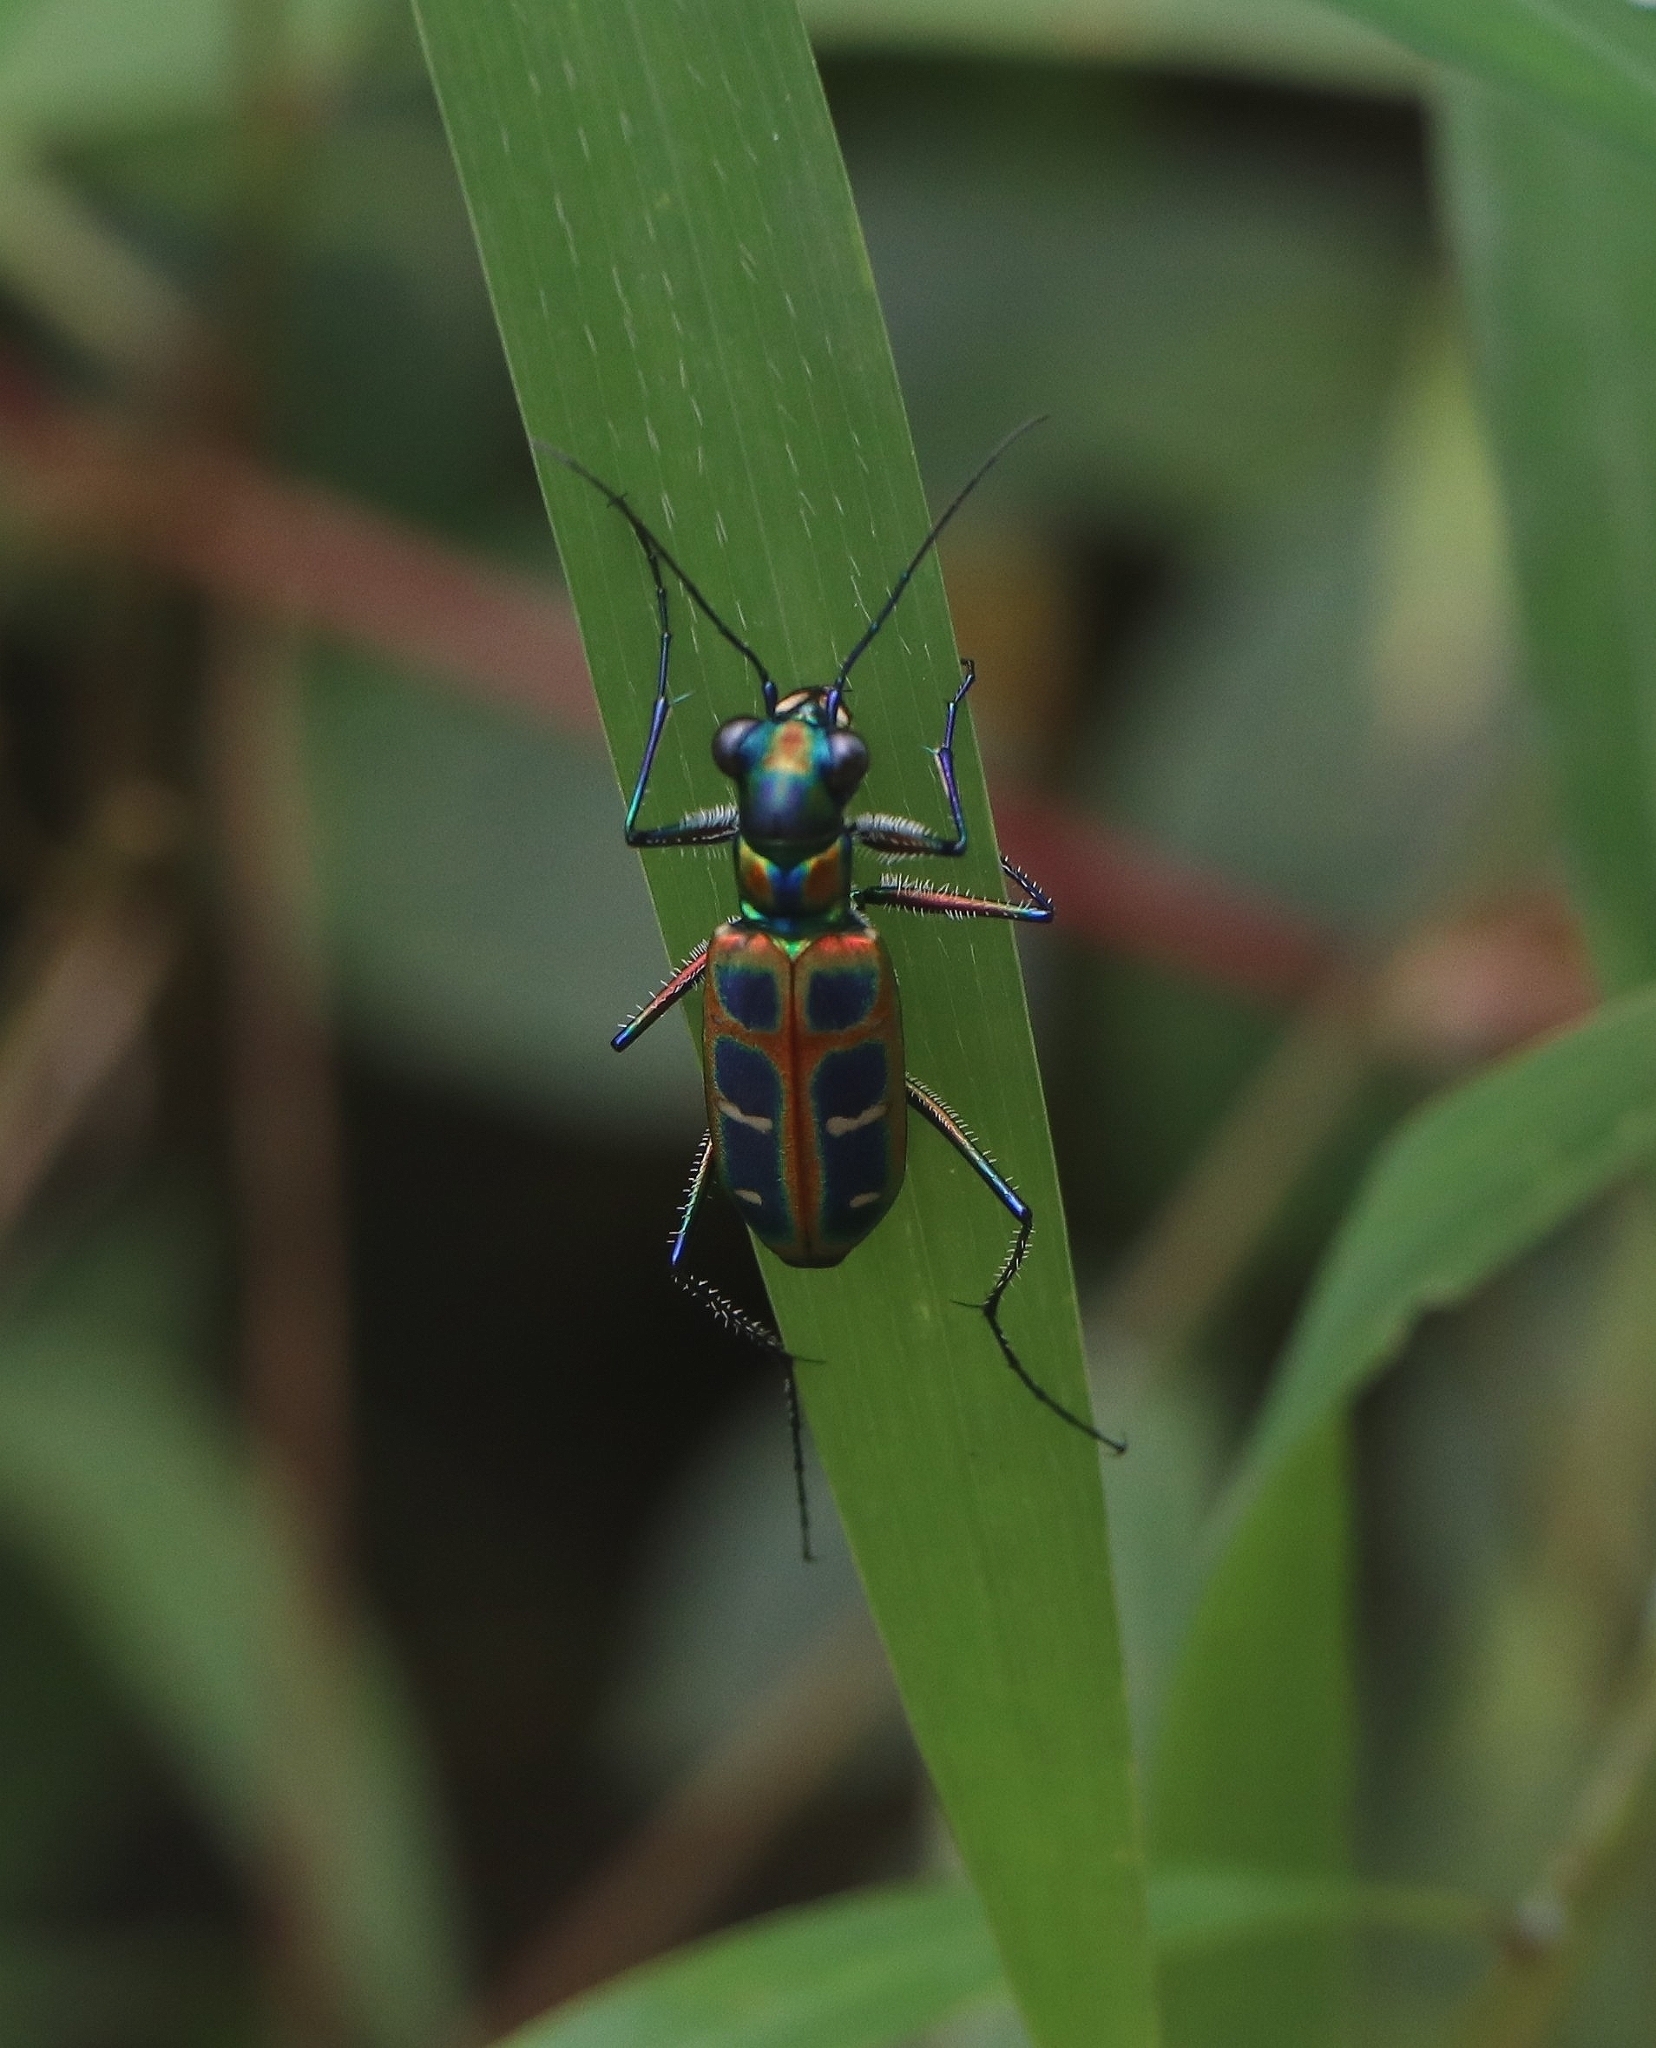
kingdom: Animalia
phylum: Arthropoda
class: Insecta
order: Coleoptera
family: Carabidae
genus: Cicindela
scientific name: Cicindela barmanica
